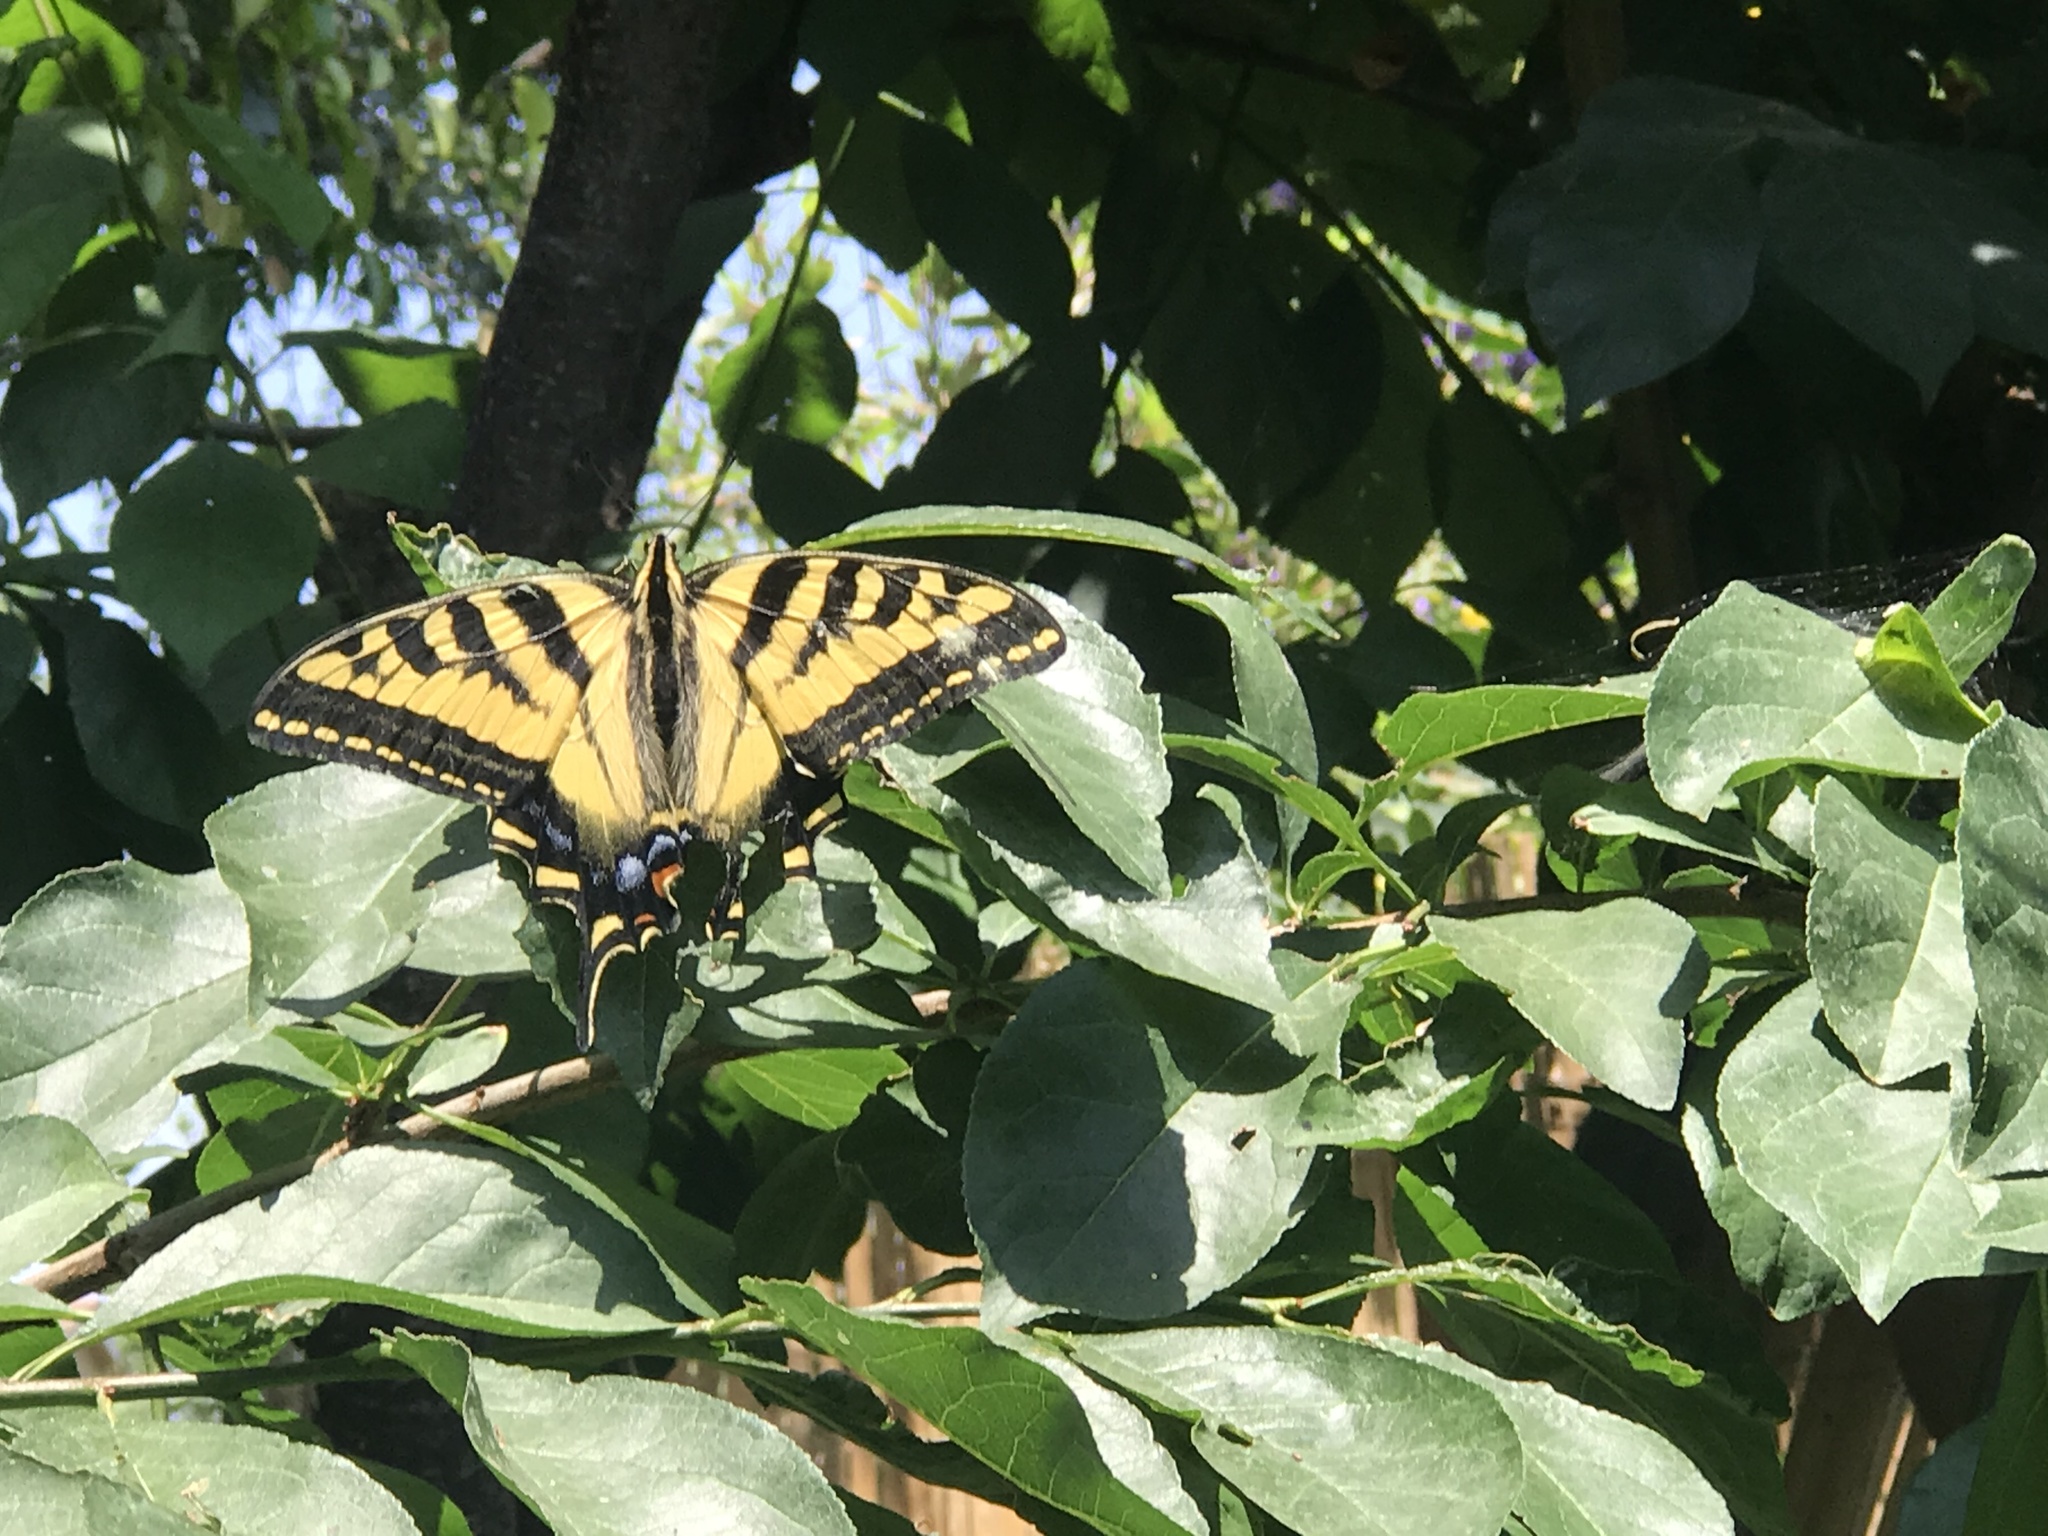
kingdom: Animalia
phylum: Arthropoda
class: Insecta
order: Lepidoptera
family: Papilionidae
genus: Papilio
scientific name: Papilio rutulus
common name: Western tiger swallowtail
